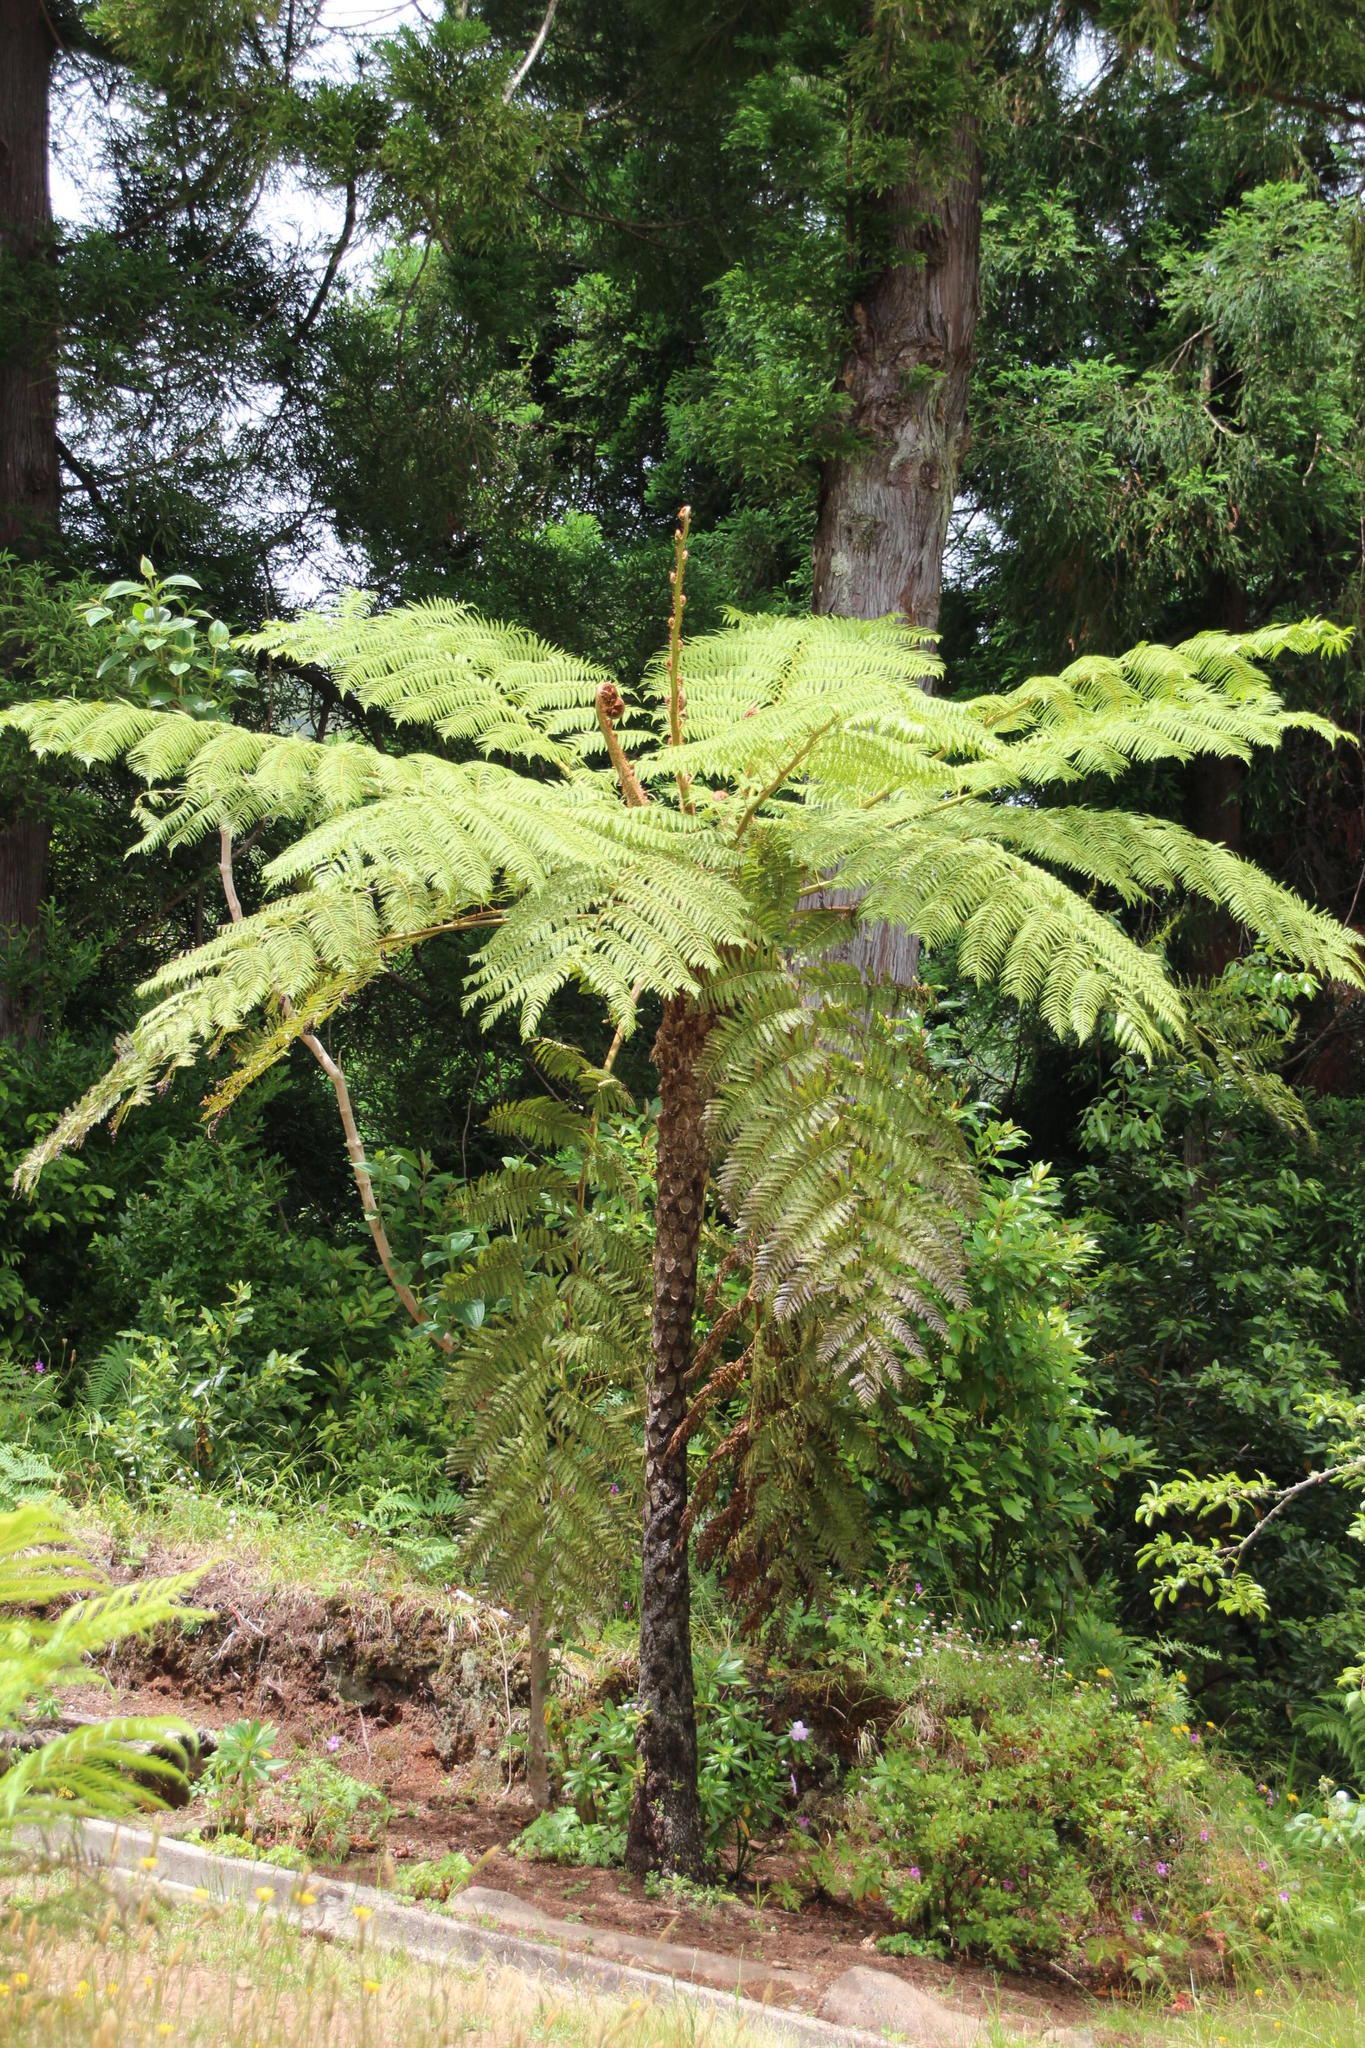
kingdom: Plantae
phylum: Tracheophyta
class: Polypodiopsida
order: Cyatheales
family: Cyatheaceae
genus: Sphaeropteris
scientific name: Sphaeropteris cooperi
